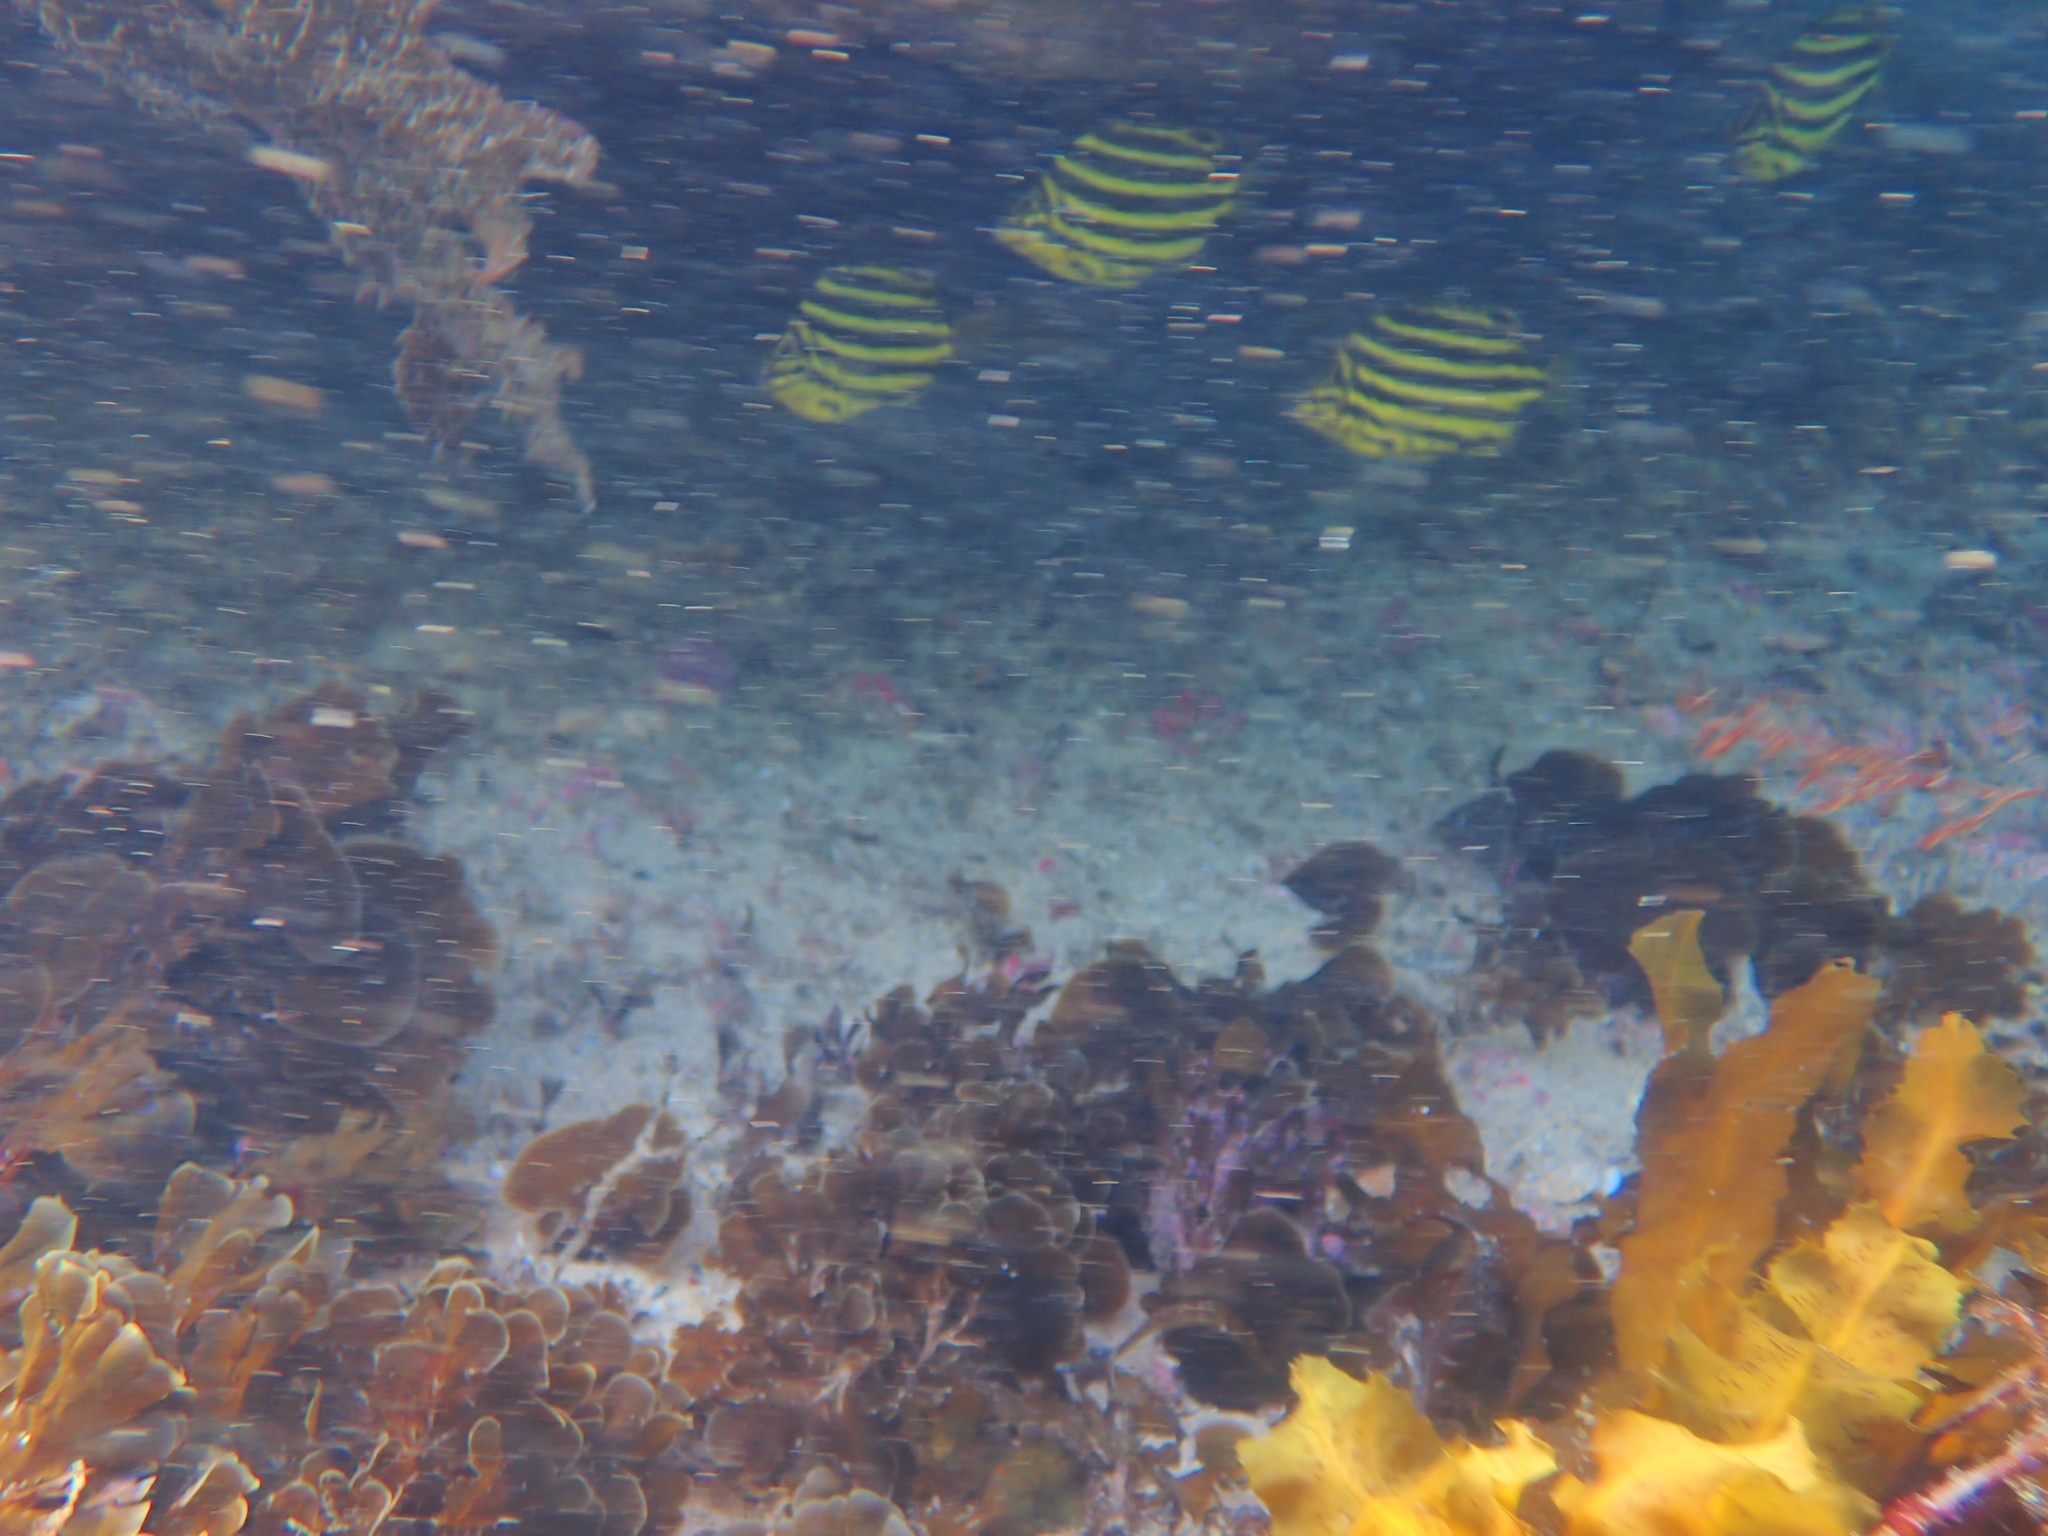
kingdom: Animalia
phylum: Chordata
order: Perciformes
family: Kyphosidae
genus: Microcanthus
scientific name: Microcanthus joyceae
